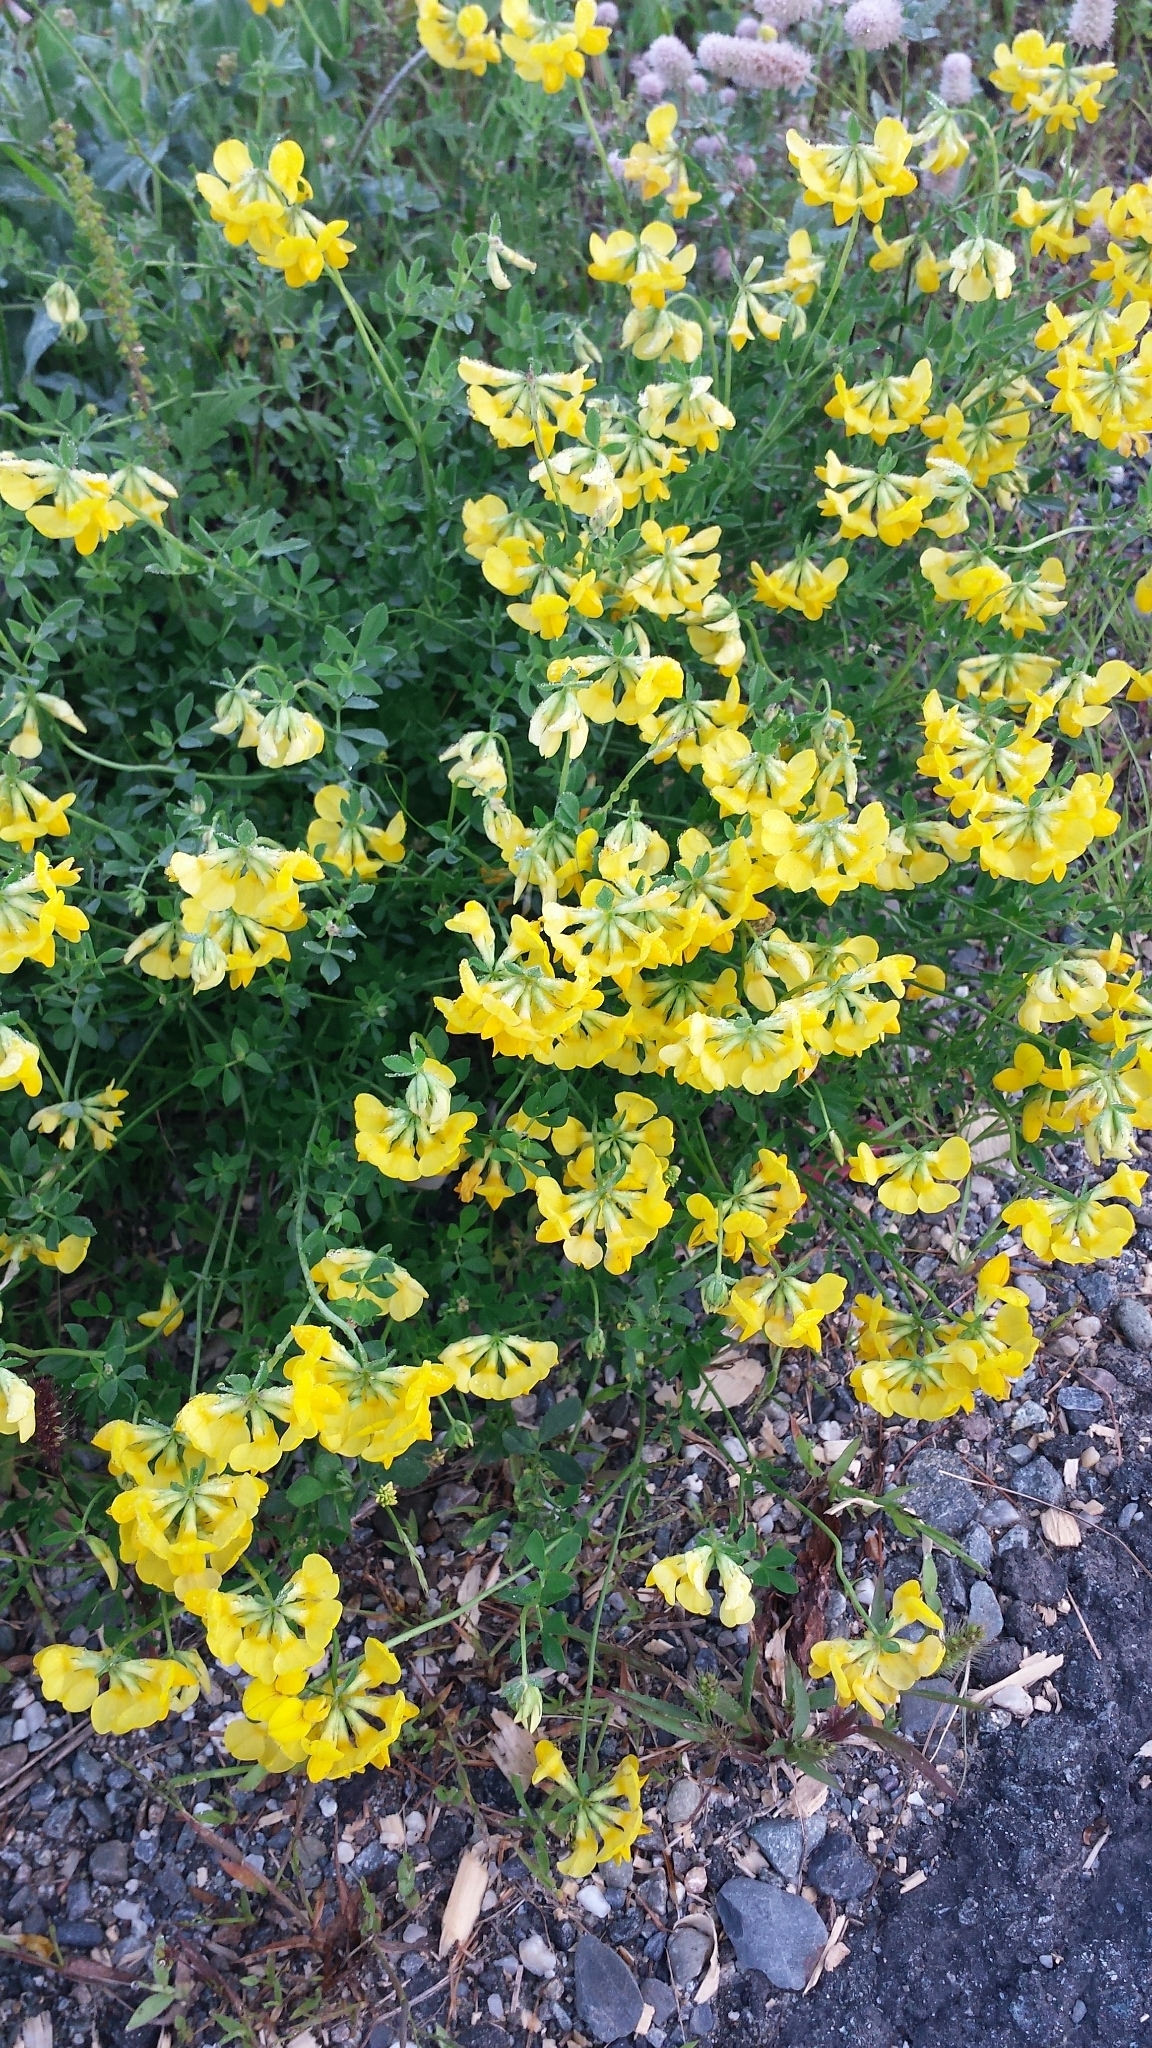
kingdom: Plantae
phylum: Tracheophyta
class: Magnoliopsida
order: Fabales
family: Fabaceae
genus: Lotus
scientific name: Lotus corniculatus
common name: Common bird's-foot-trefoil
